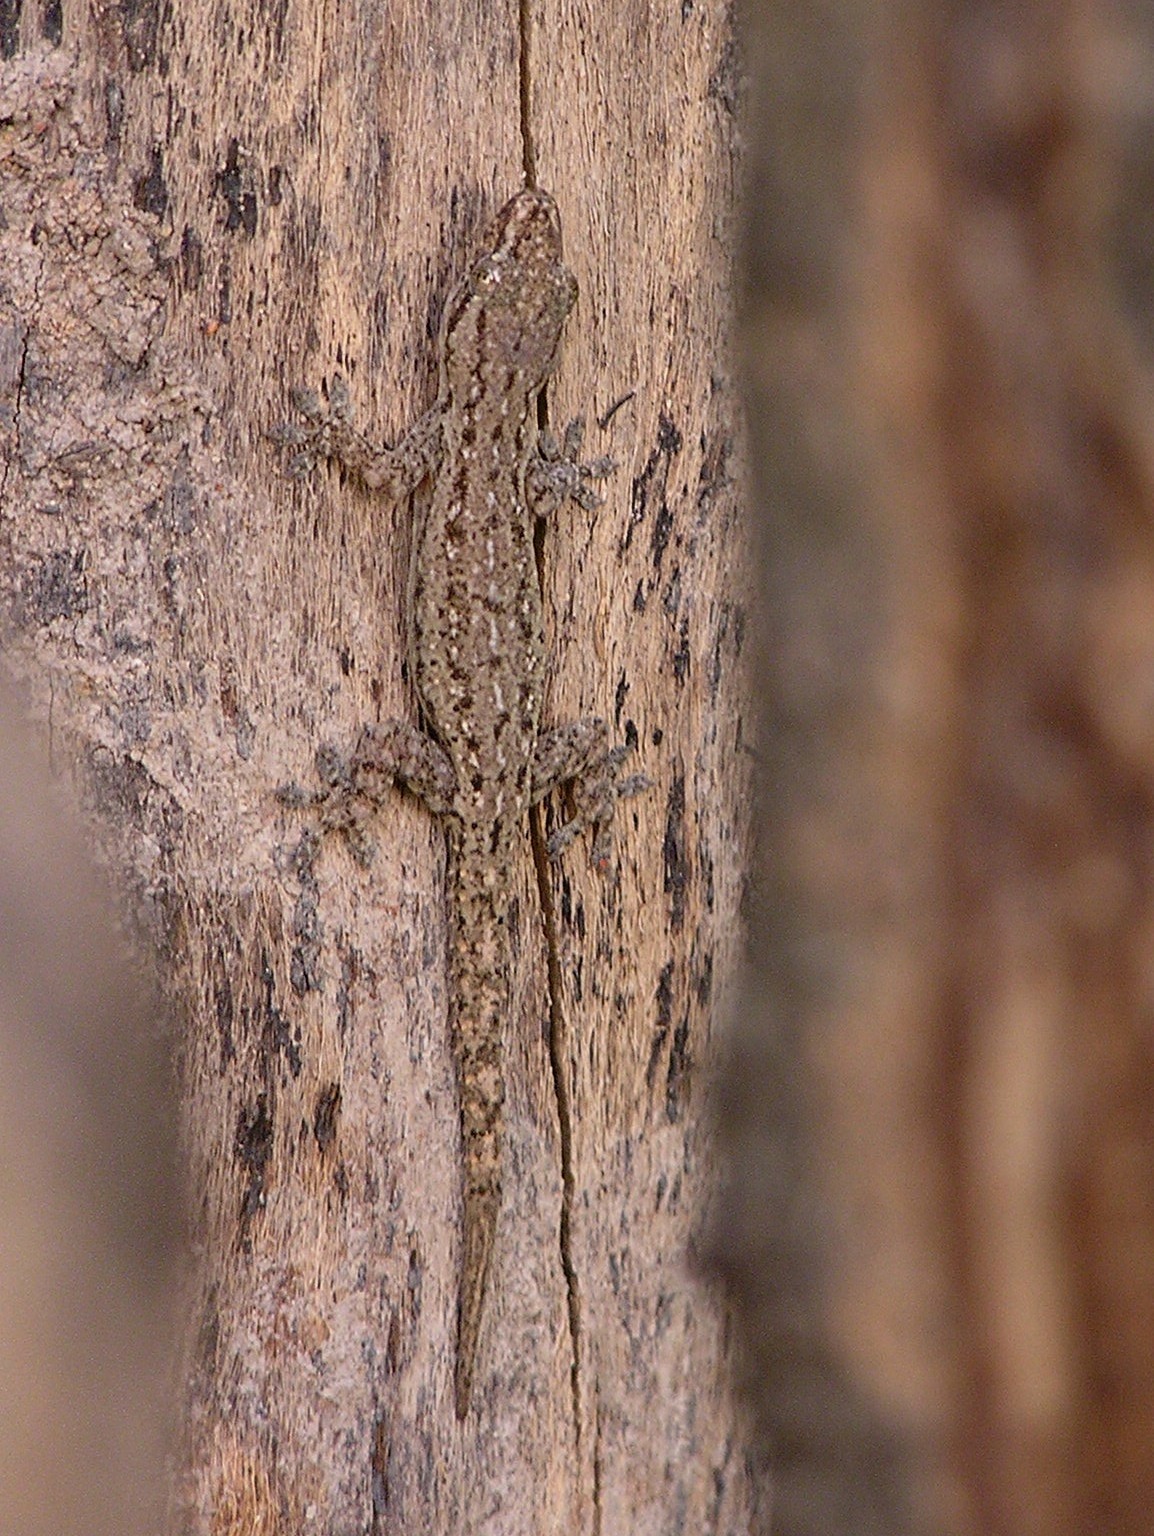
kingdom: Animalia
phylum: Chordata
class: Squamata
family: Gekkonidae
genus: Hemidactylus
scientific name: Hemidactylus frenatus
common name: Common house gecko
